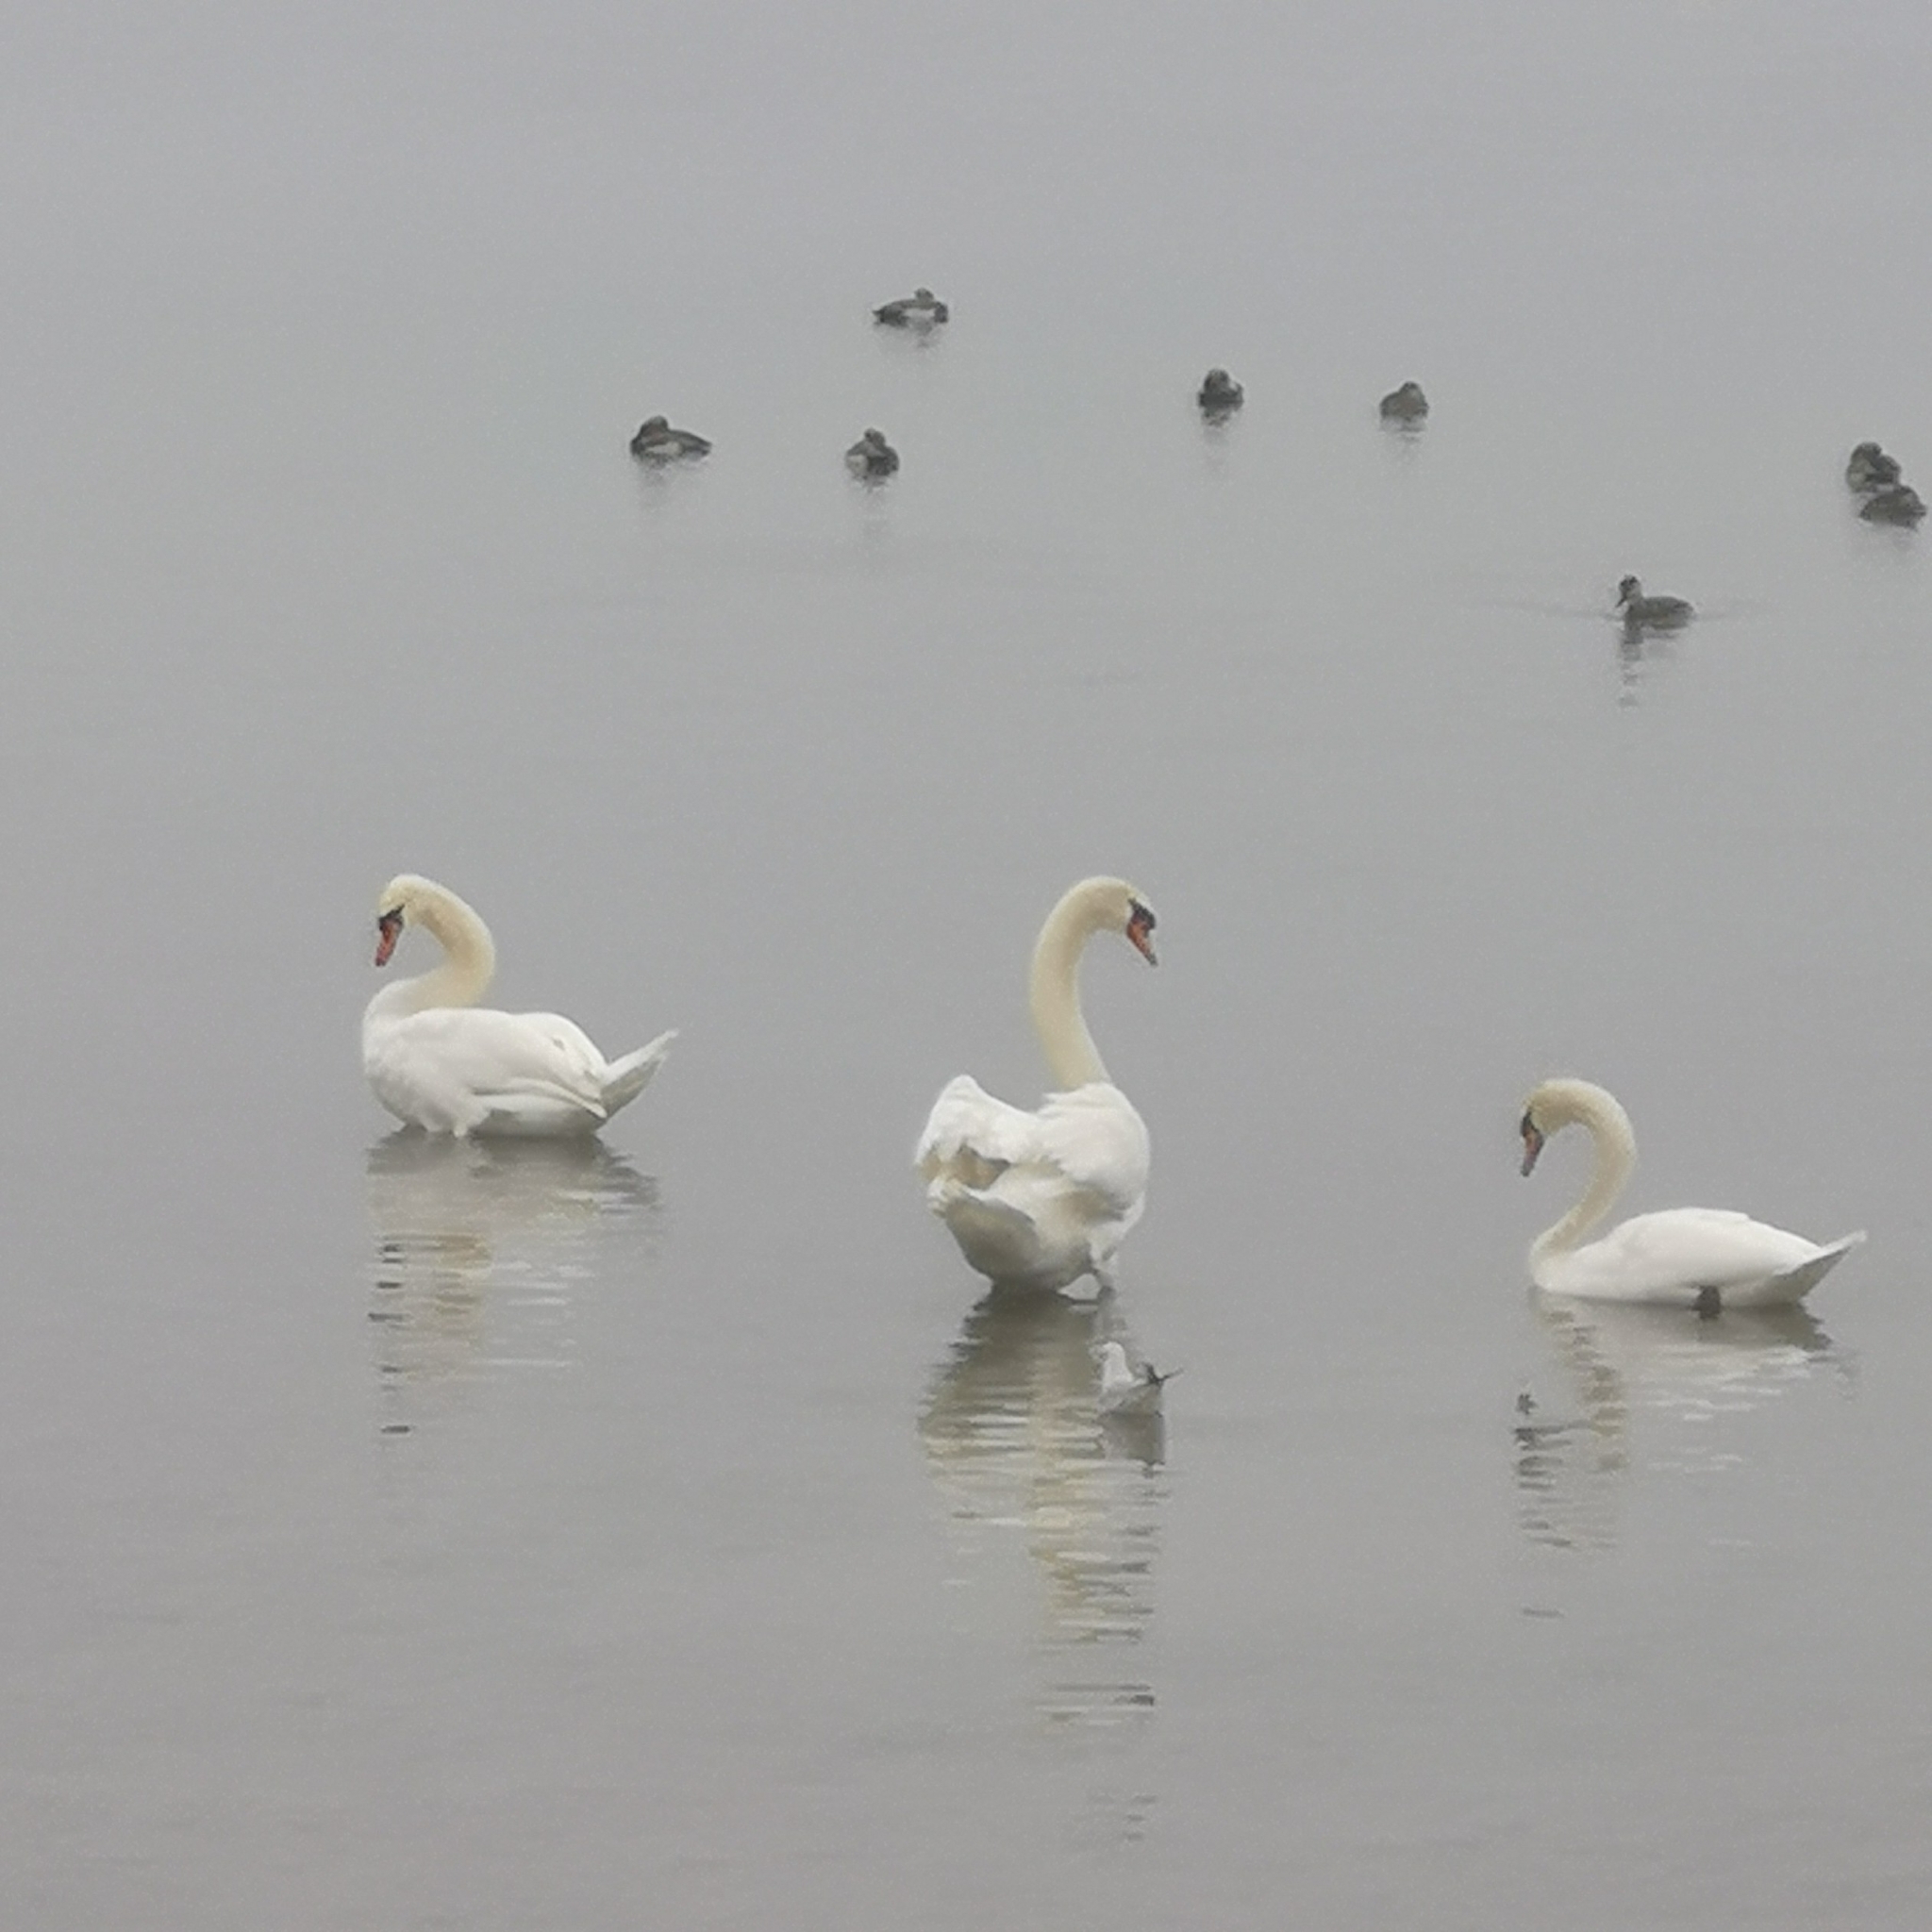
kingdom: Animalia
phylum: Chordata
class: Aves
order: Anseriformes
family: Anatidae
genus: Cygnus
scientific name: Cygnus olor
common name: Mute swan
